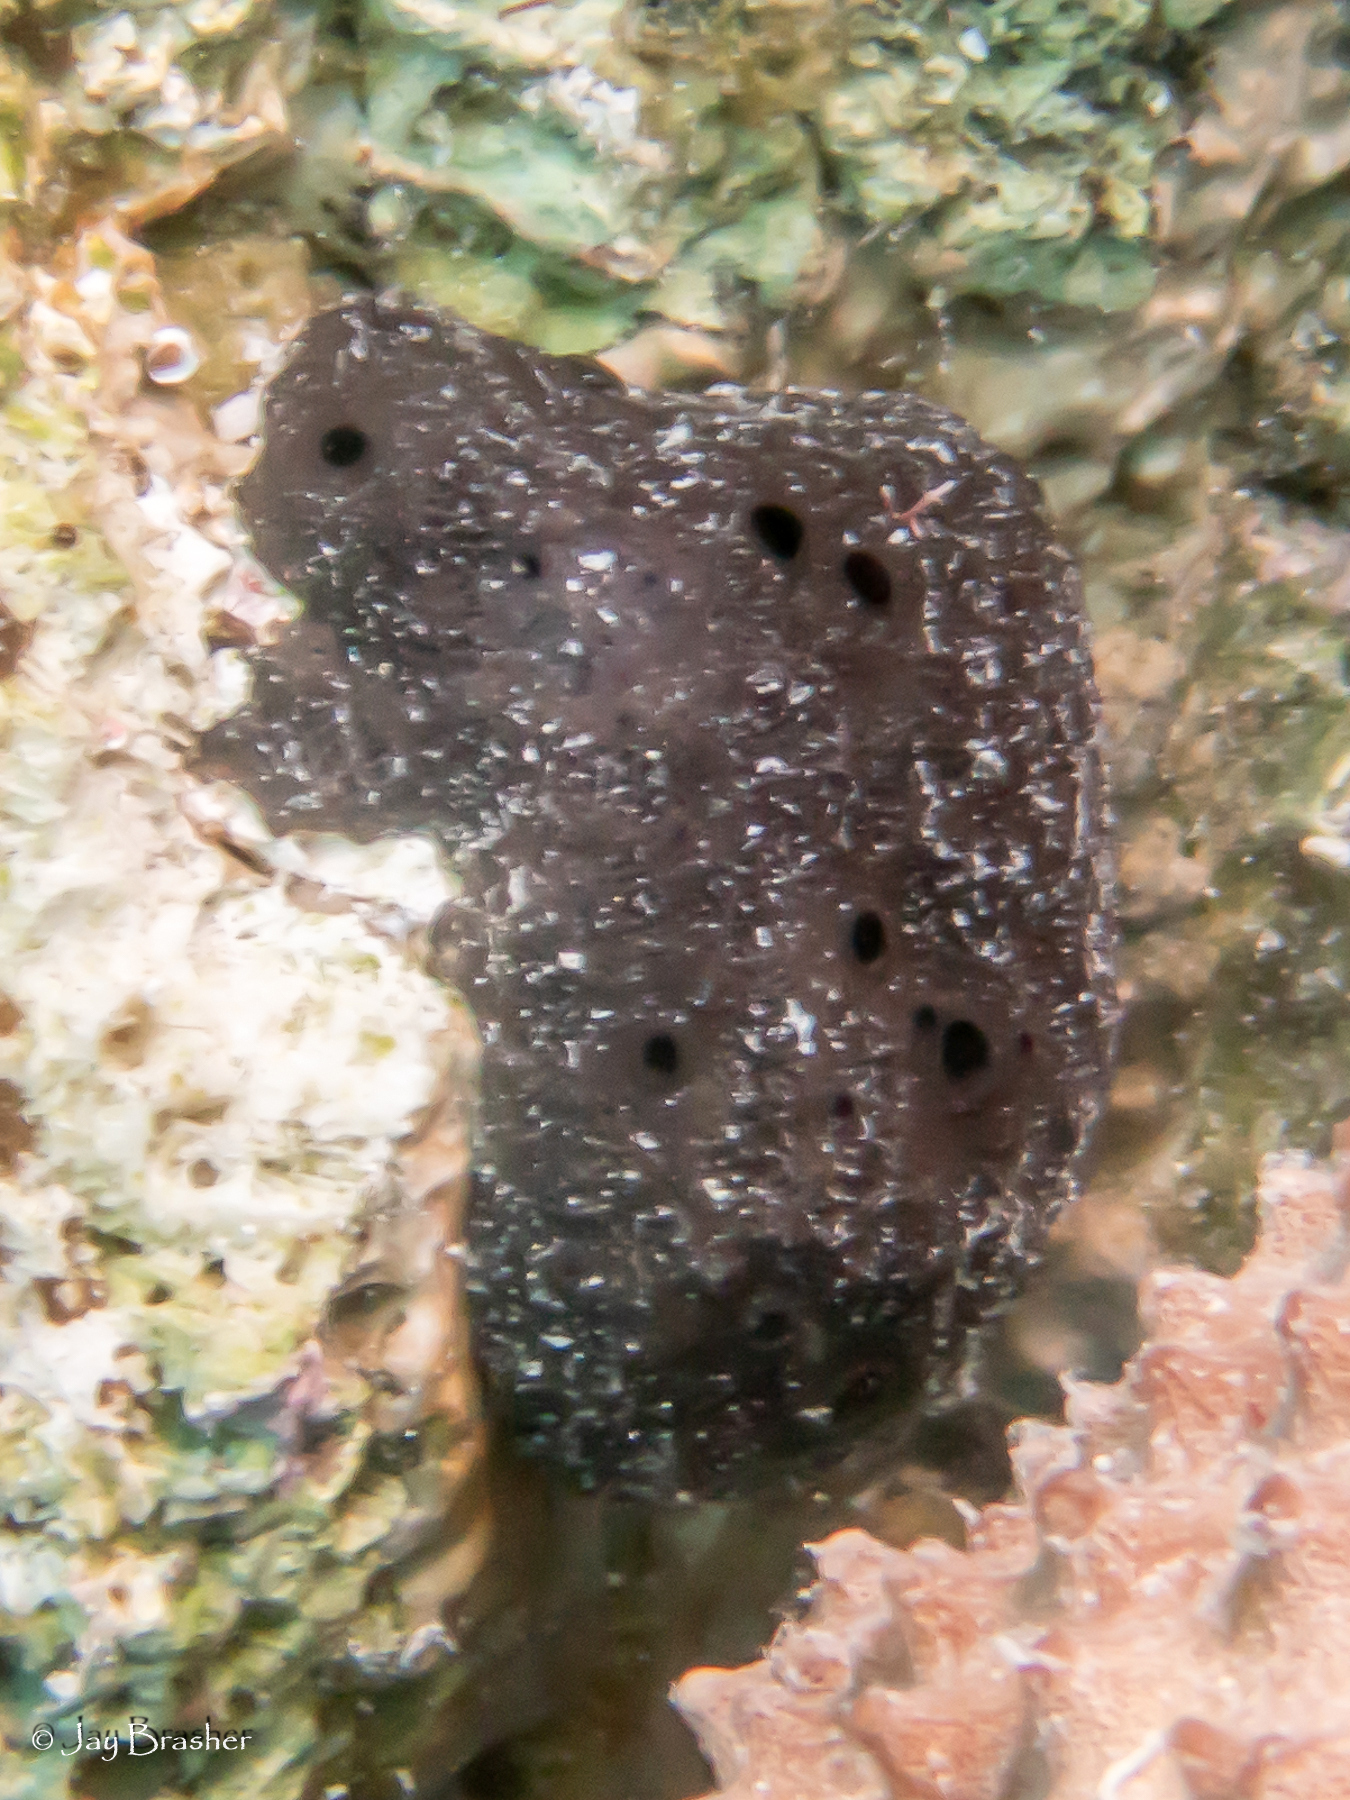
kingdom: Animalia
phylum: Porifera
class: Demospongiae
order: Dictyoceratida
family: Spongiidae
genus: Spongia
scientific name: Spongia obscura
